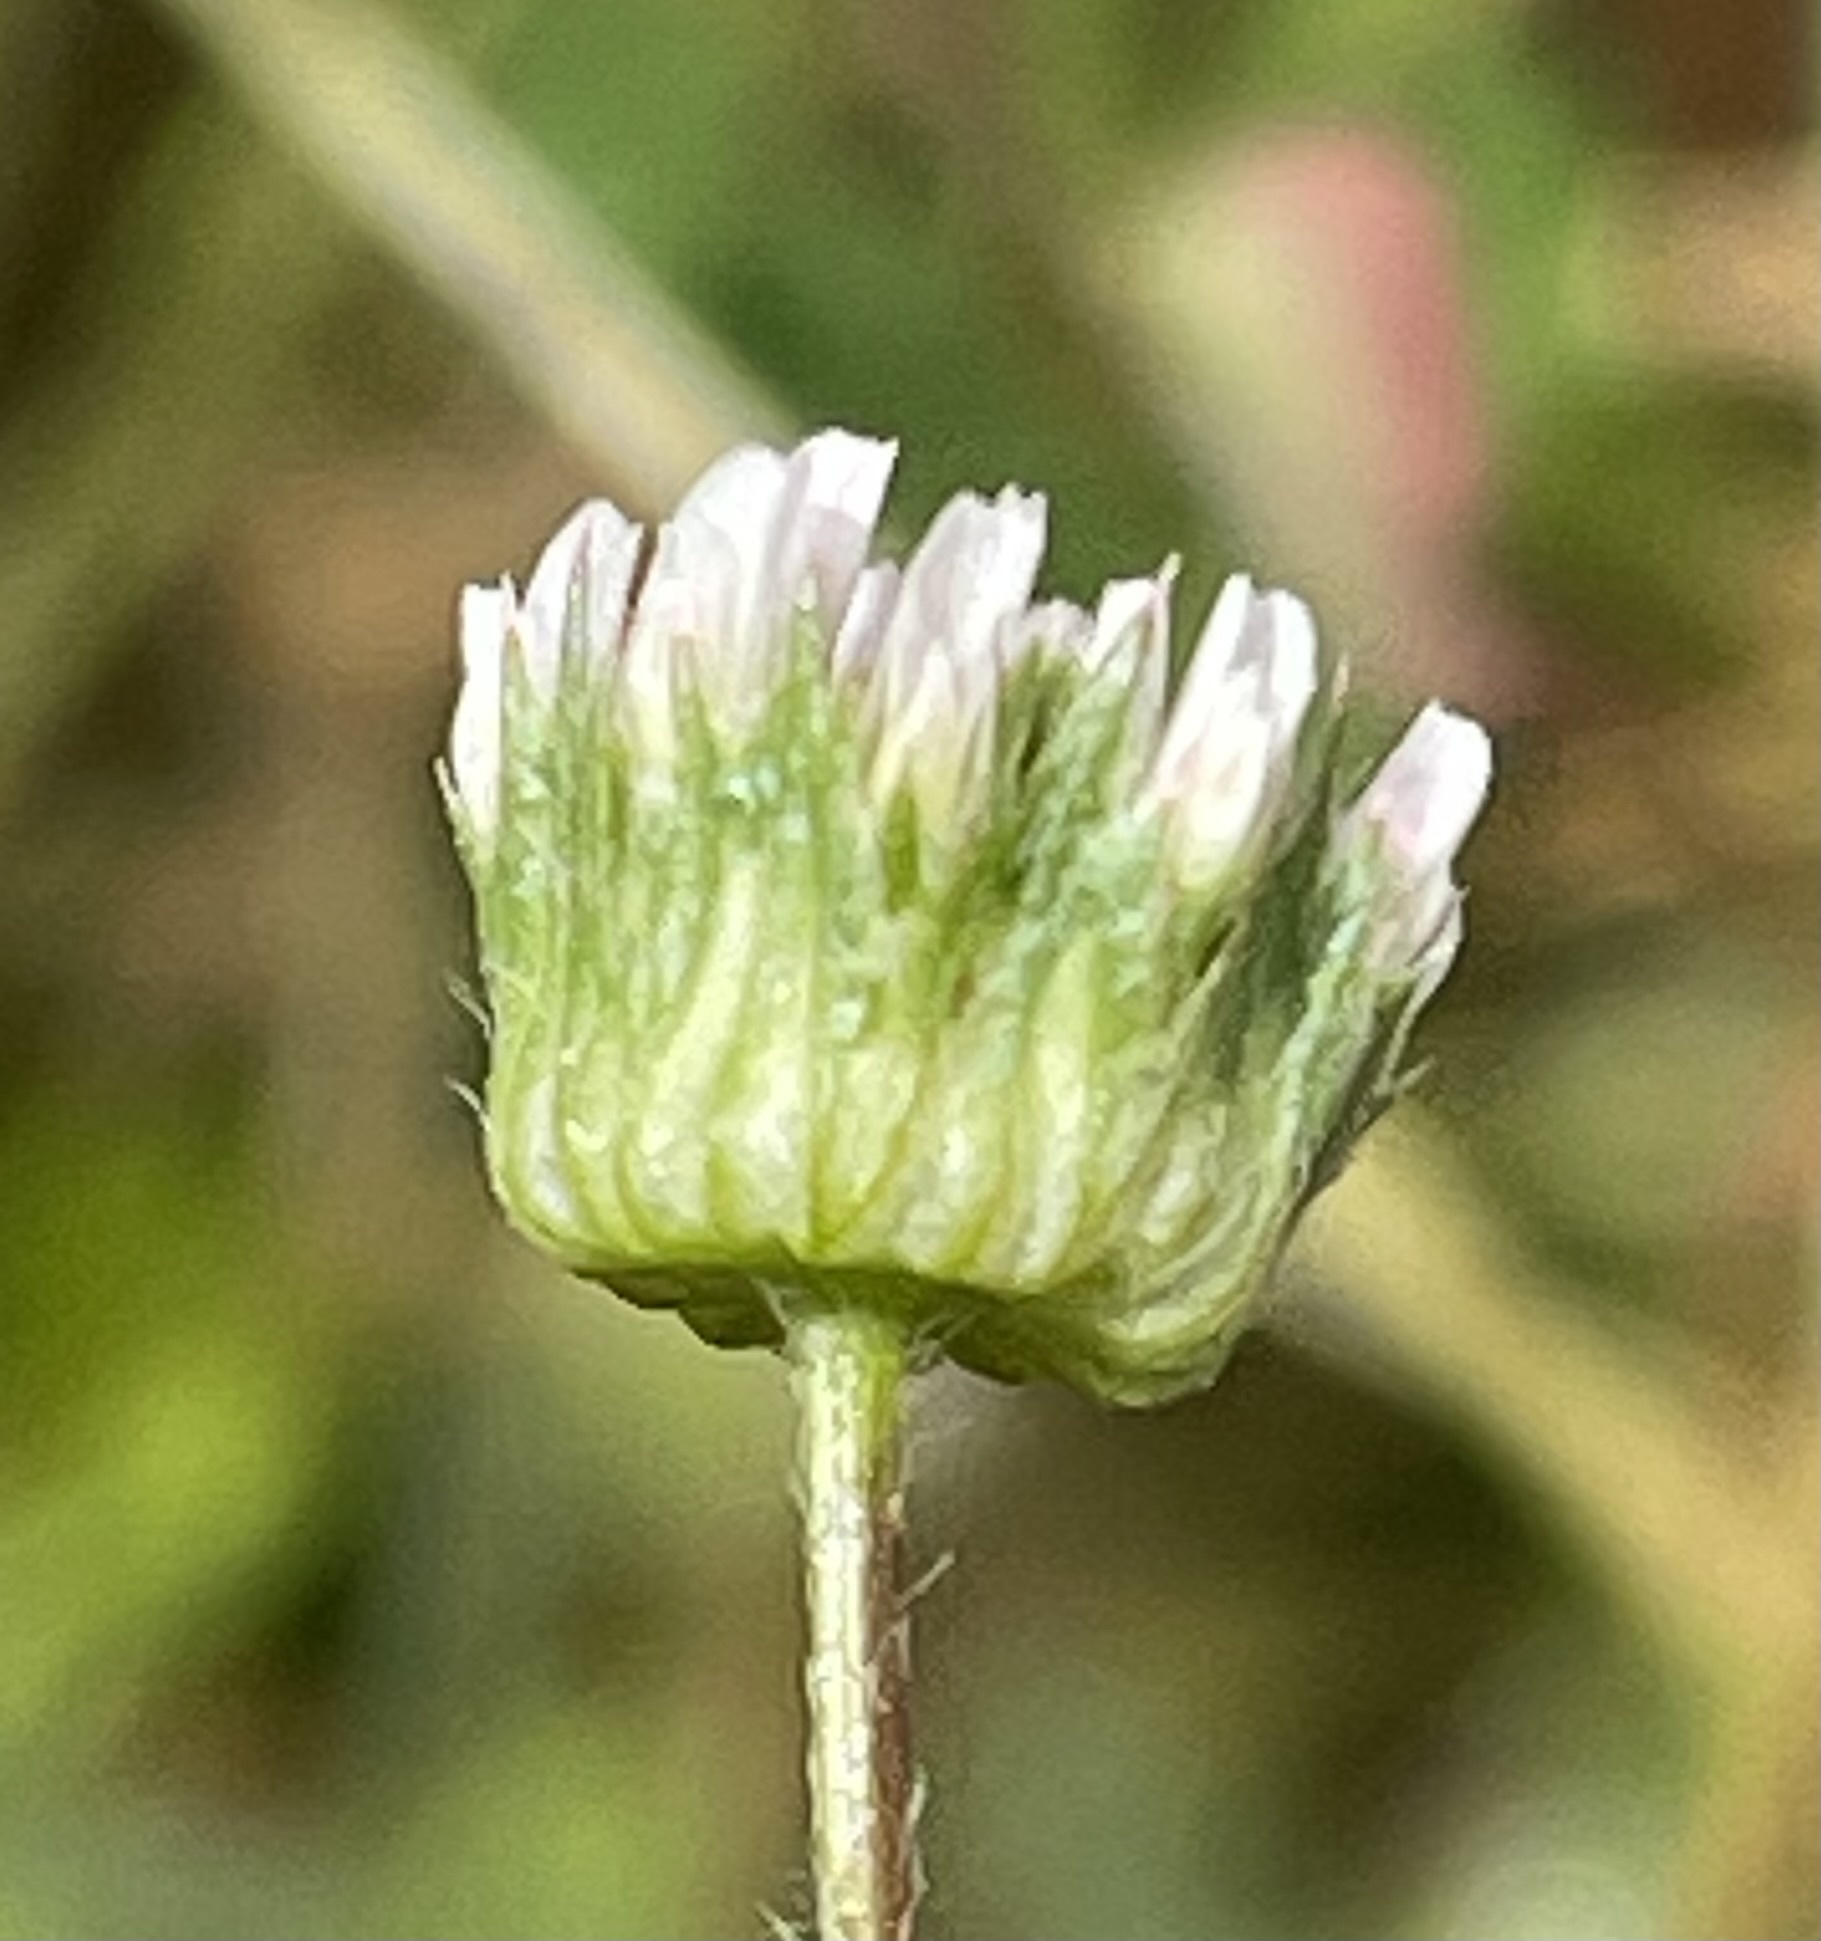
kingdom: Plantae
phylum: Tracheophyta
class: Magnoliopsida
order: Fabales
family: Fabaceae
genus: Trifolium
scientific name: Trifolium microdon
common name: Thimble clover
